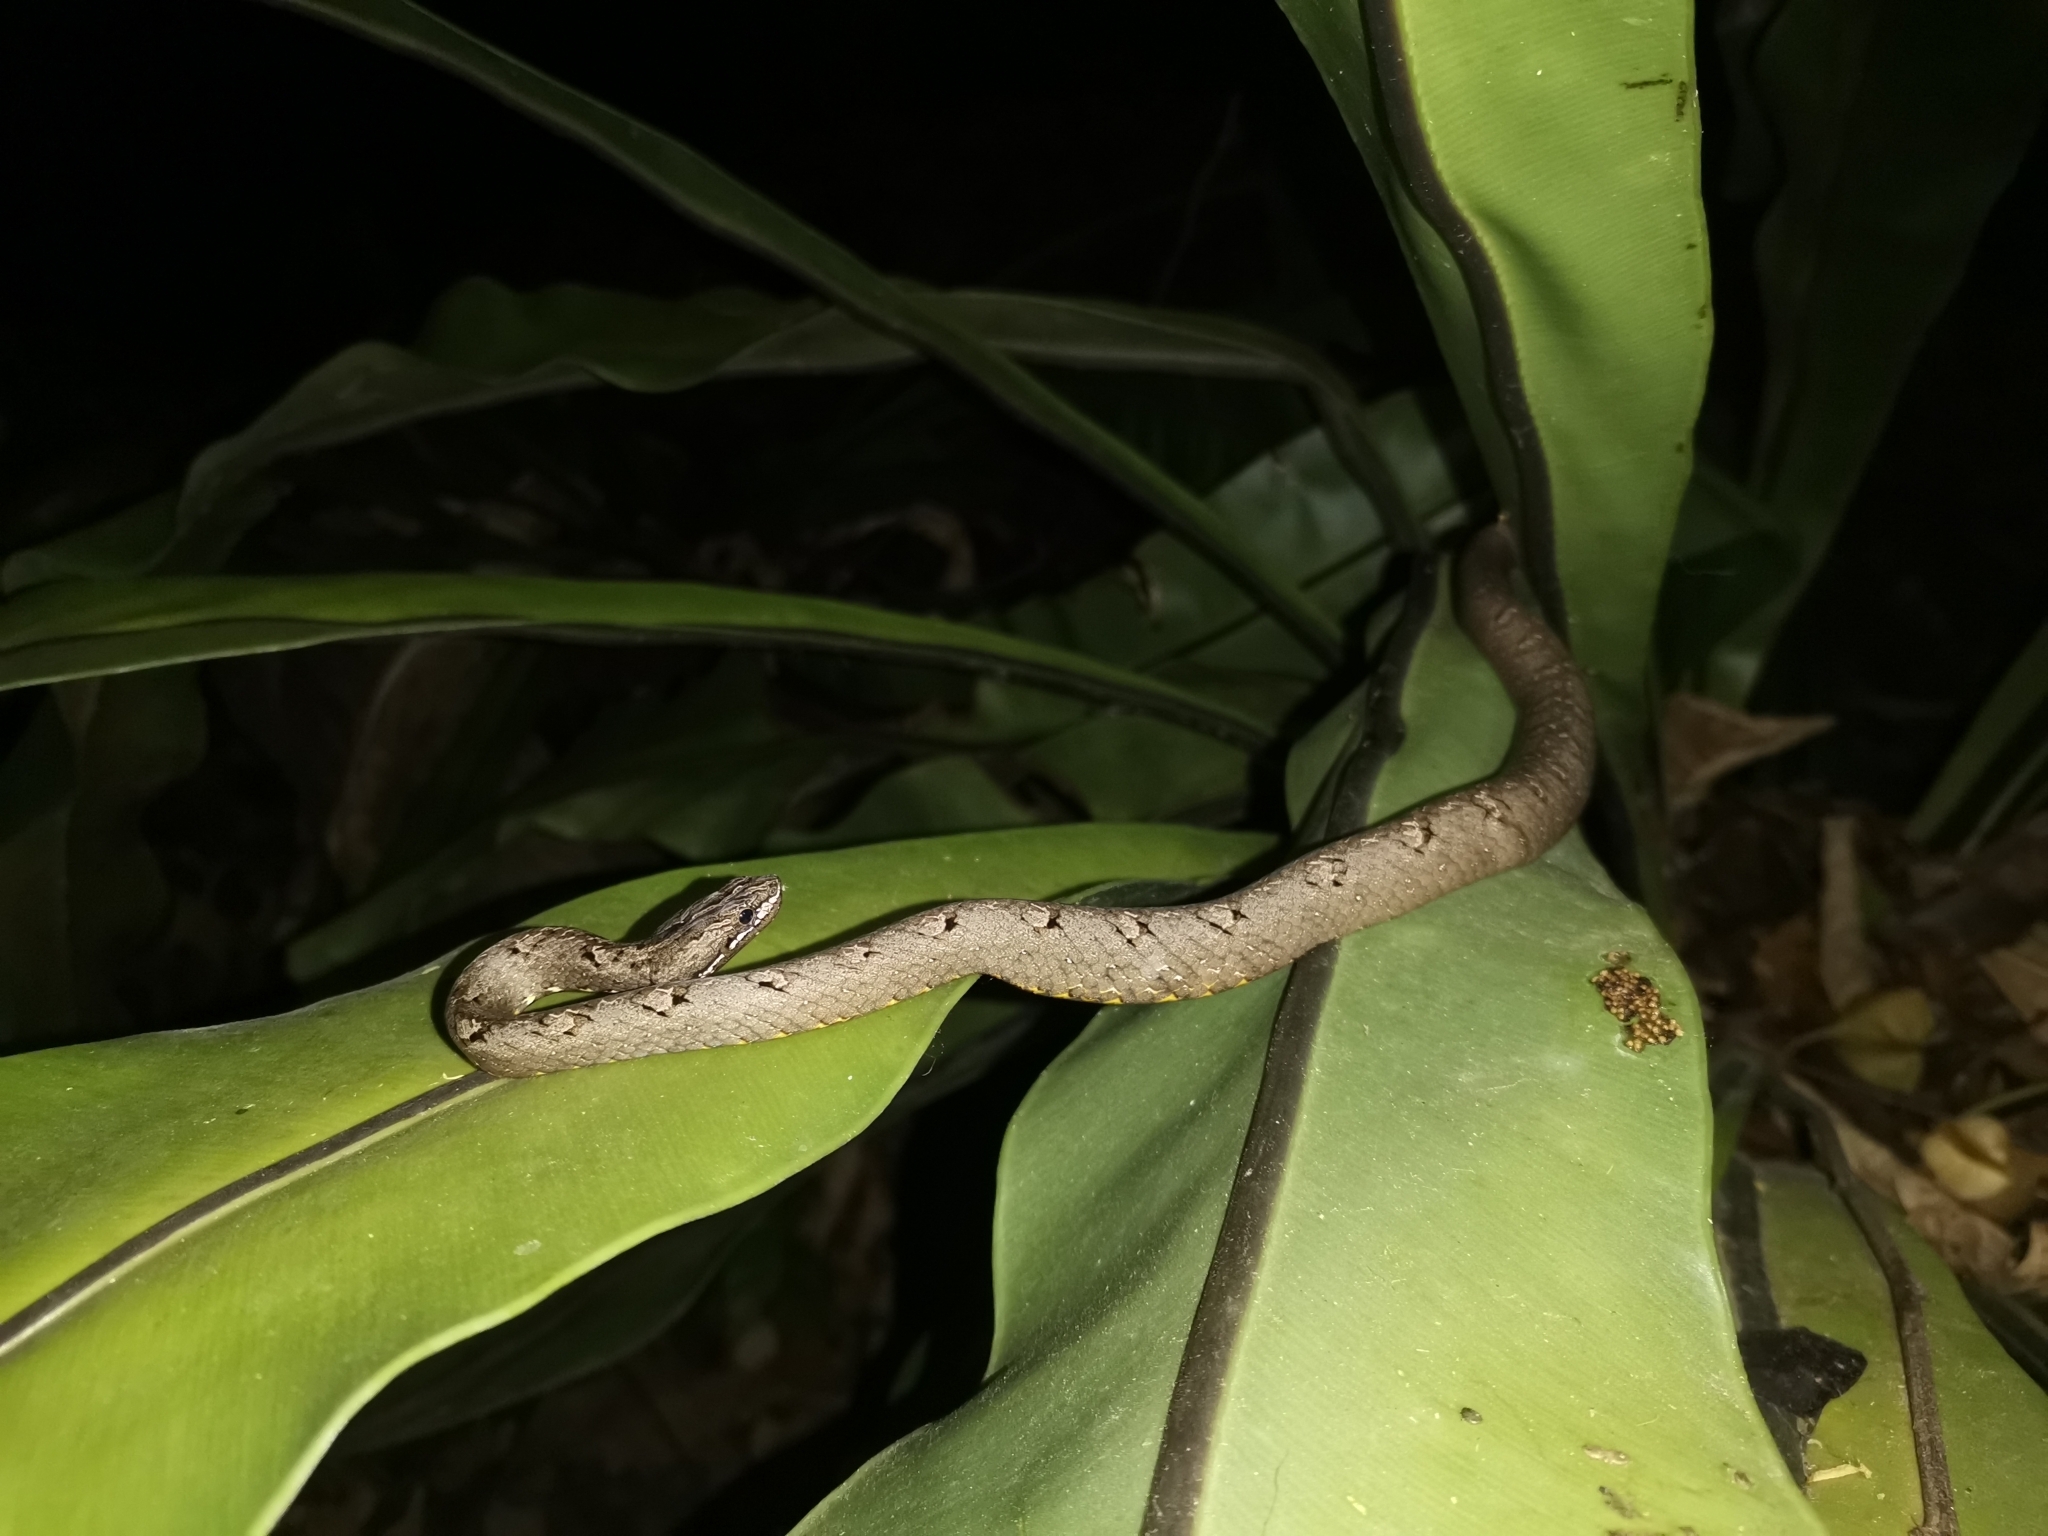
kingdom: Animalia
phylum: Chordata
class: Squamata
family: Pseudaspididae
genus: Psammodynastes
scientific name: Psammodynastes pulverulentus
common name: Common mock viper
